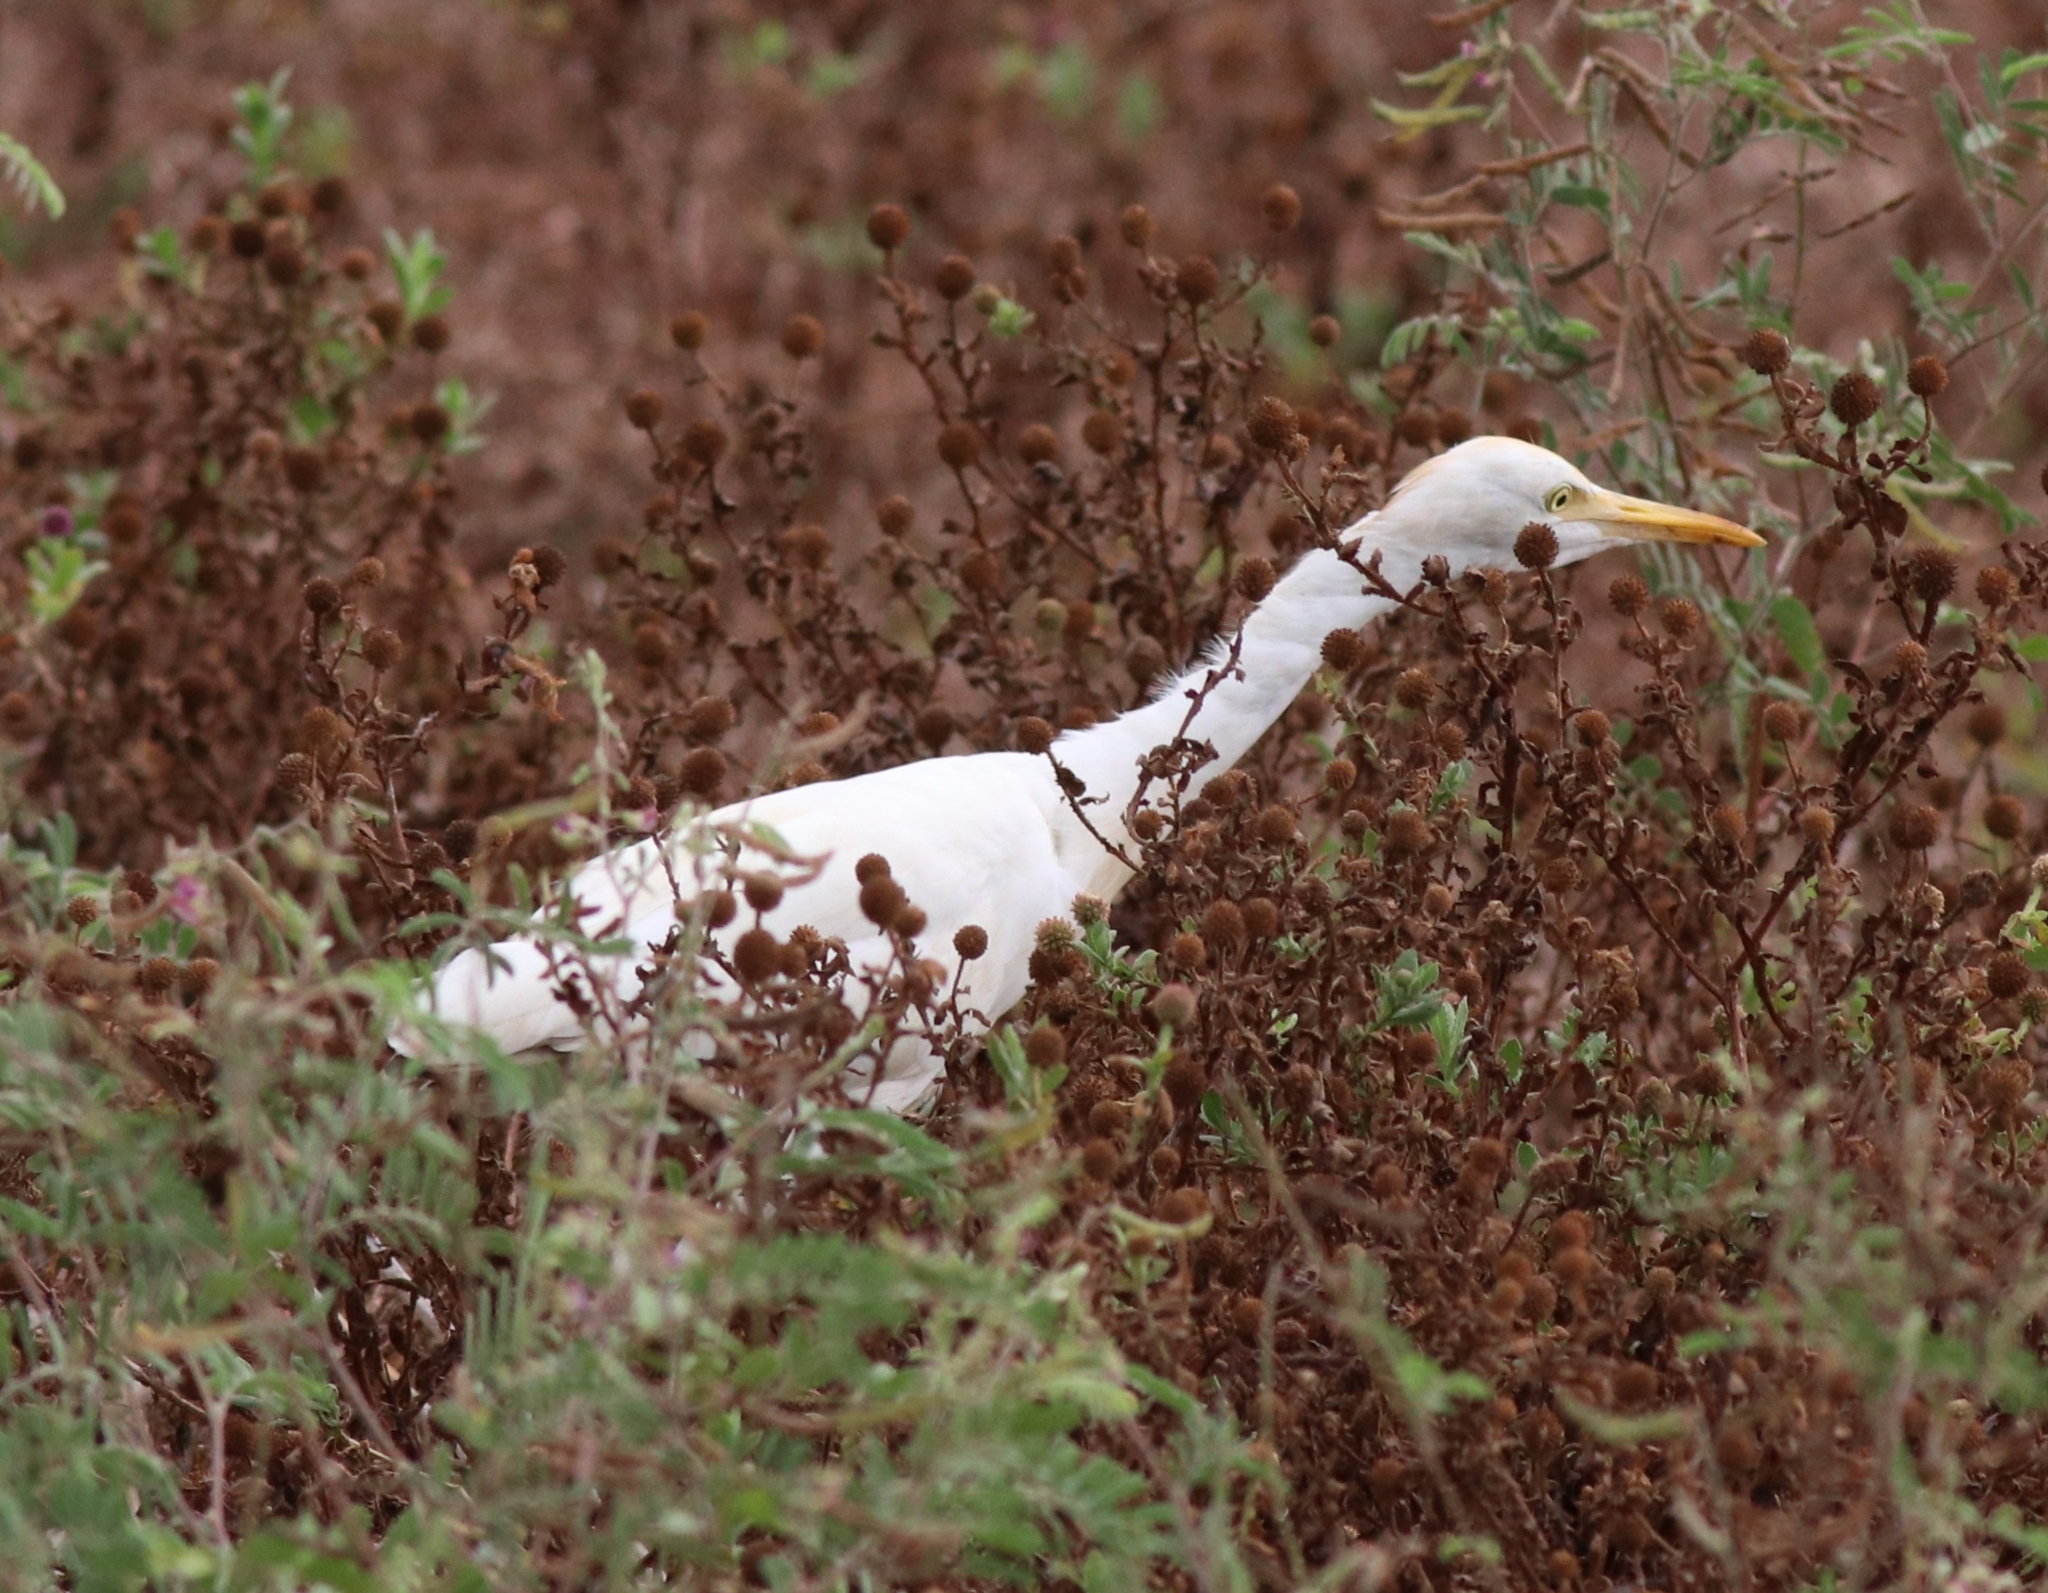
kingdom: Animalia
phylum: Chordata
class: Aves
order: Pelecaniformes
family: Ardeidae
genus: Bubulcus
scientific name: Bubulcus coromandus
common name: Eastern cattle egret
